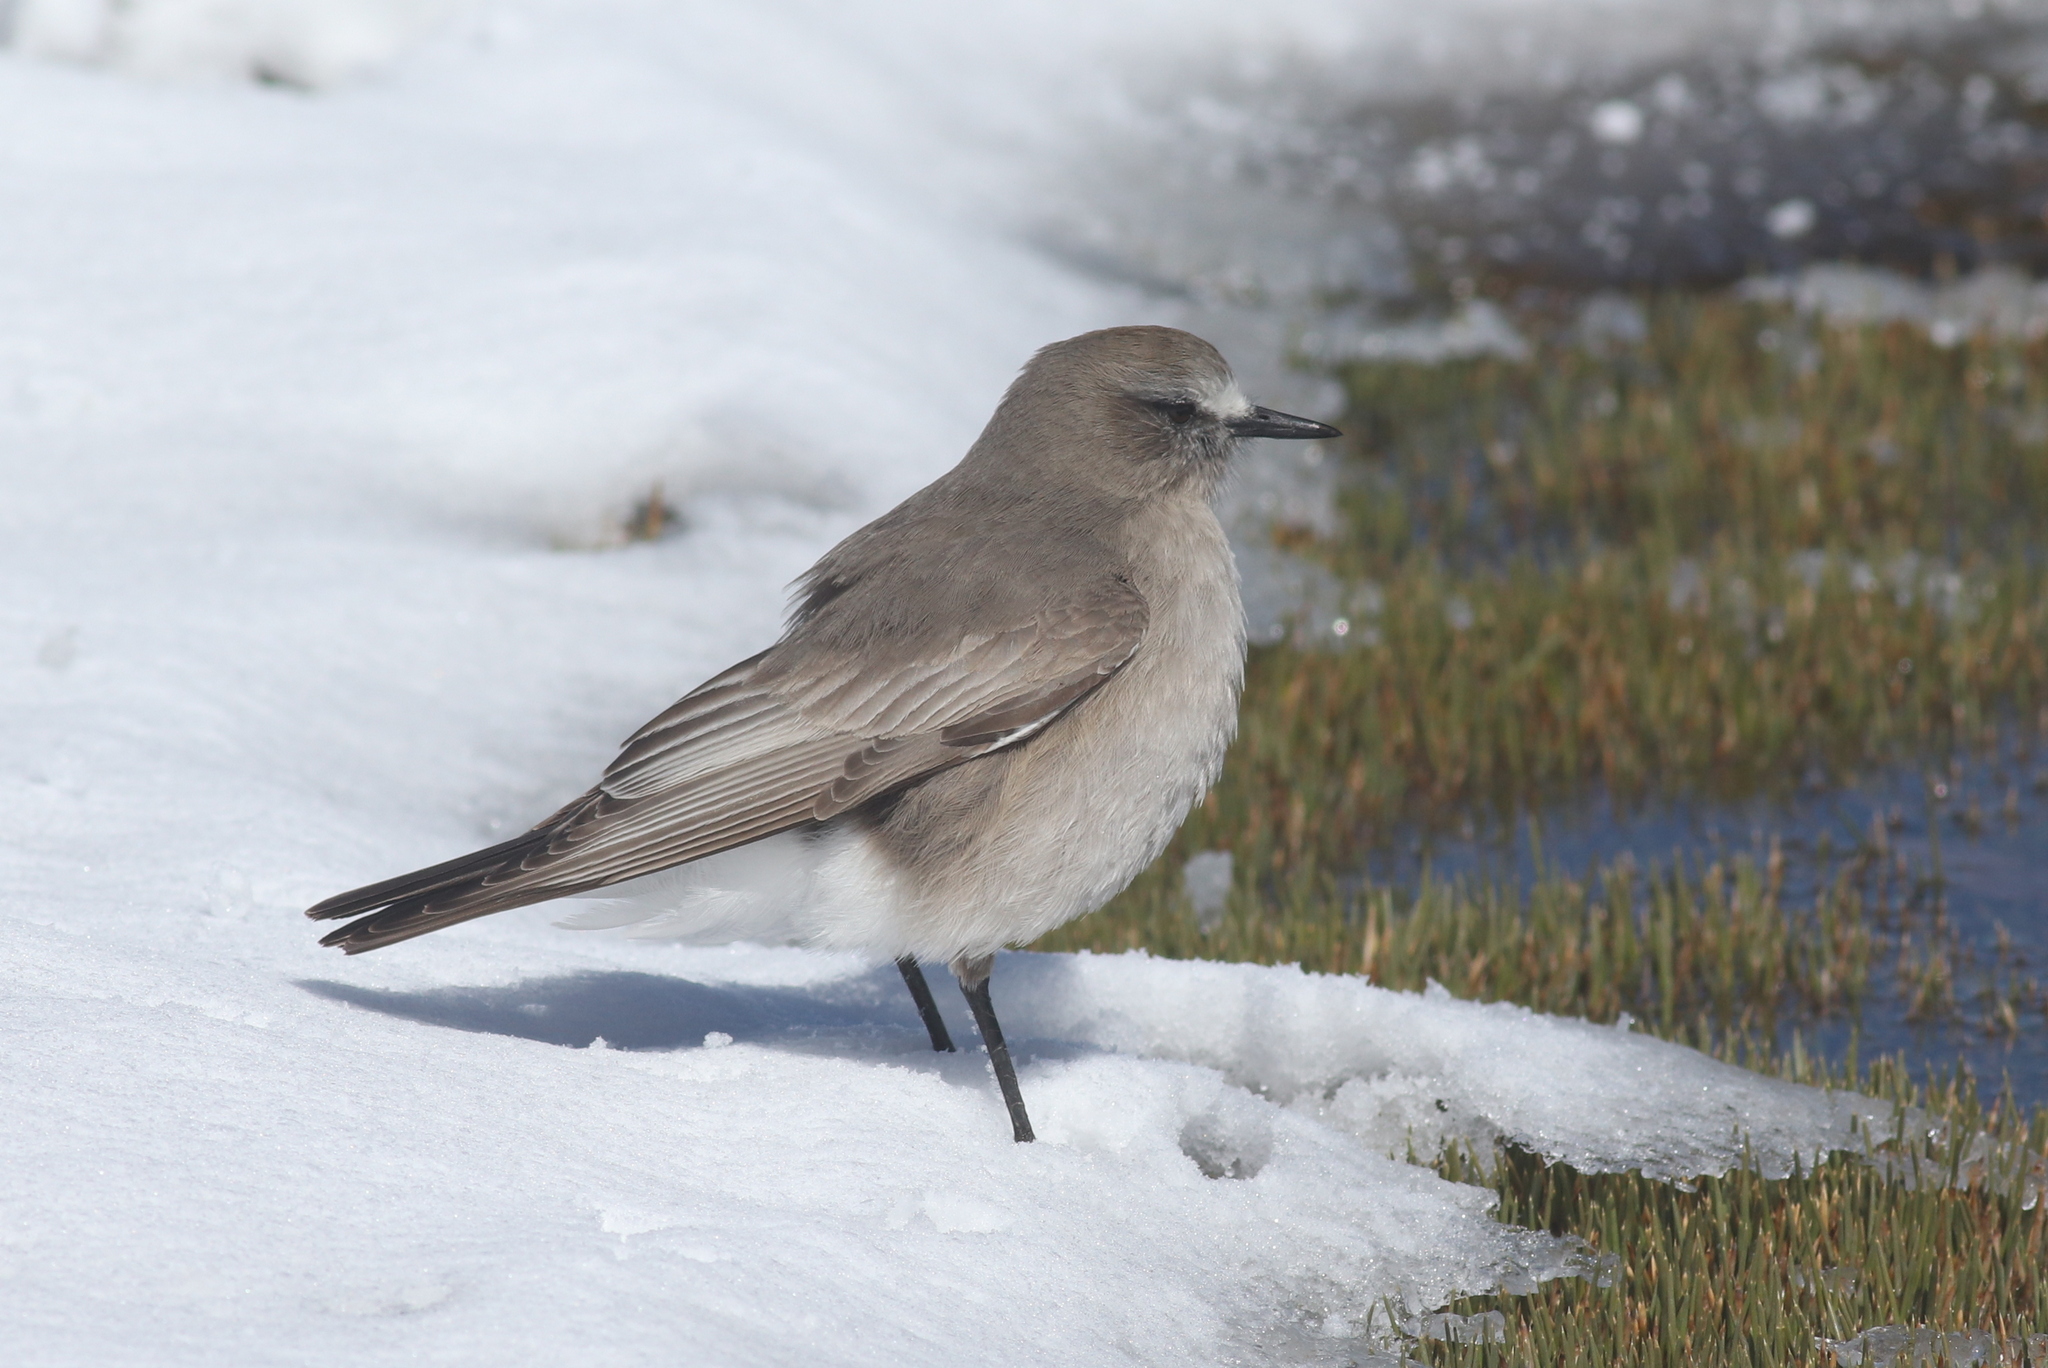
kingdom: Animalia
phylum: Chordata
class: Aves
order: Passeriformes
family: Tyrannidae
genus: Muscisaxicola
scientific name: Muscisaxicola albifrons
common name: White-fronted ground tyrant
